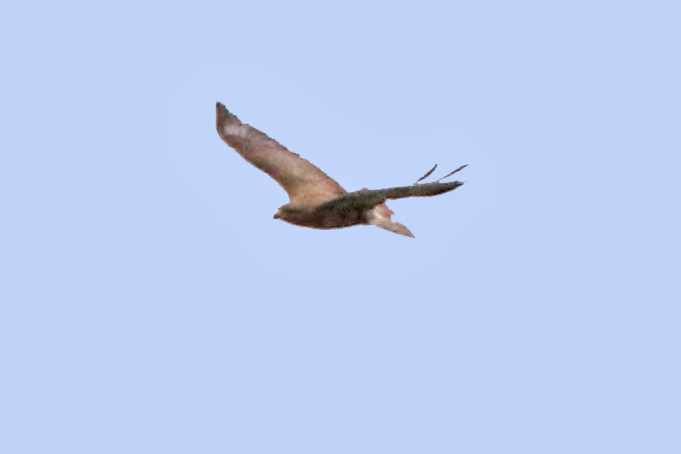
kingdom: Animalia
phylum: Chordata
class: Aves
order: Accipitriformes
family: Accipitridae
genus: Buteo
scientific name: Buteo buteo
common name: Common buzzard
